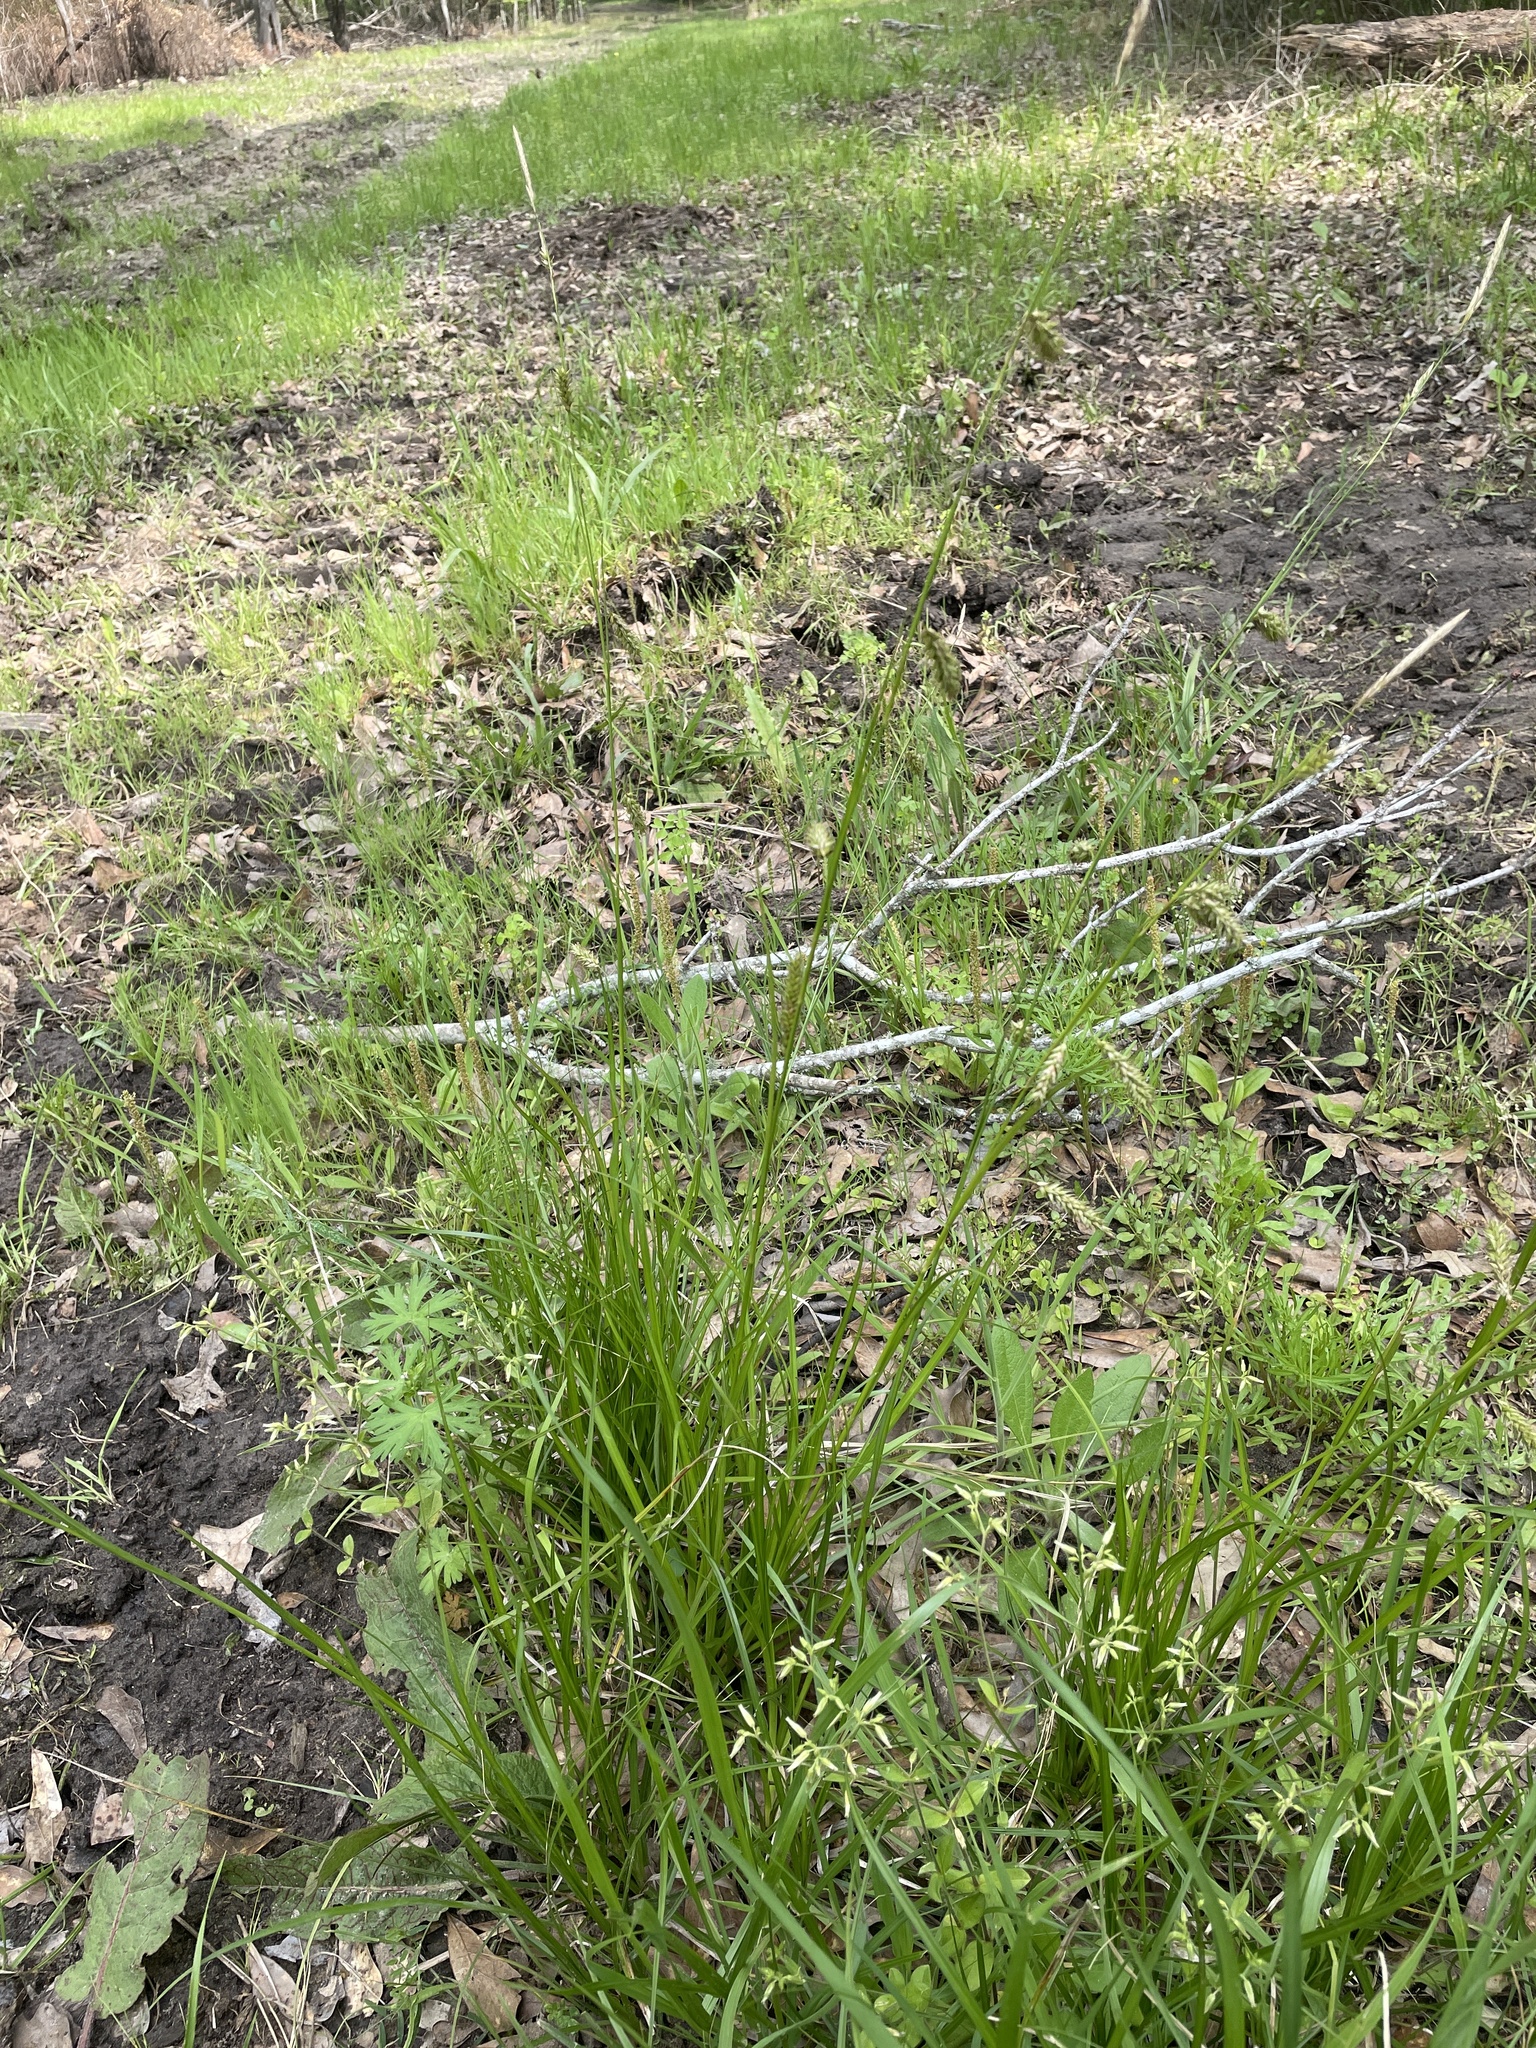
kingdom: Plantae
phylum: Tracheophyta
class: Liliopsida
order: Poales
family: Cyperaceae
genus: Carex
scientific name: Carex cherokeensis
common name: Cherokee sedge
